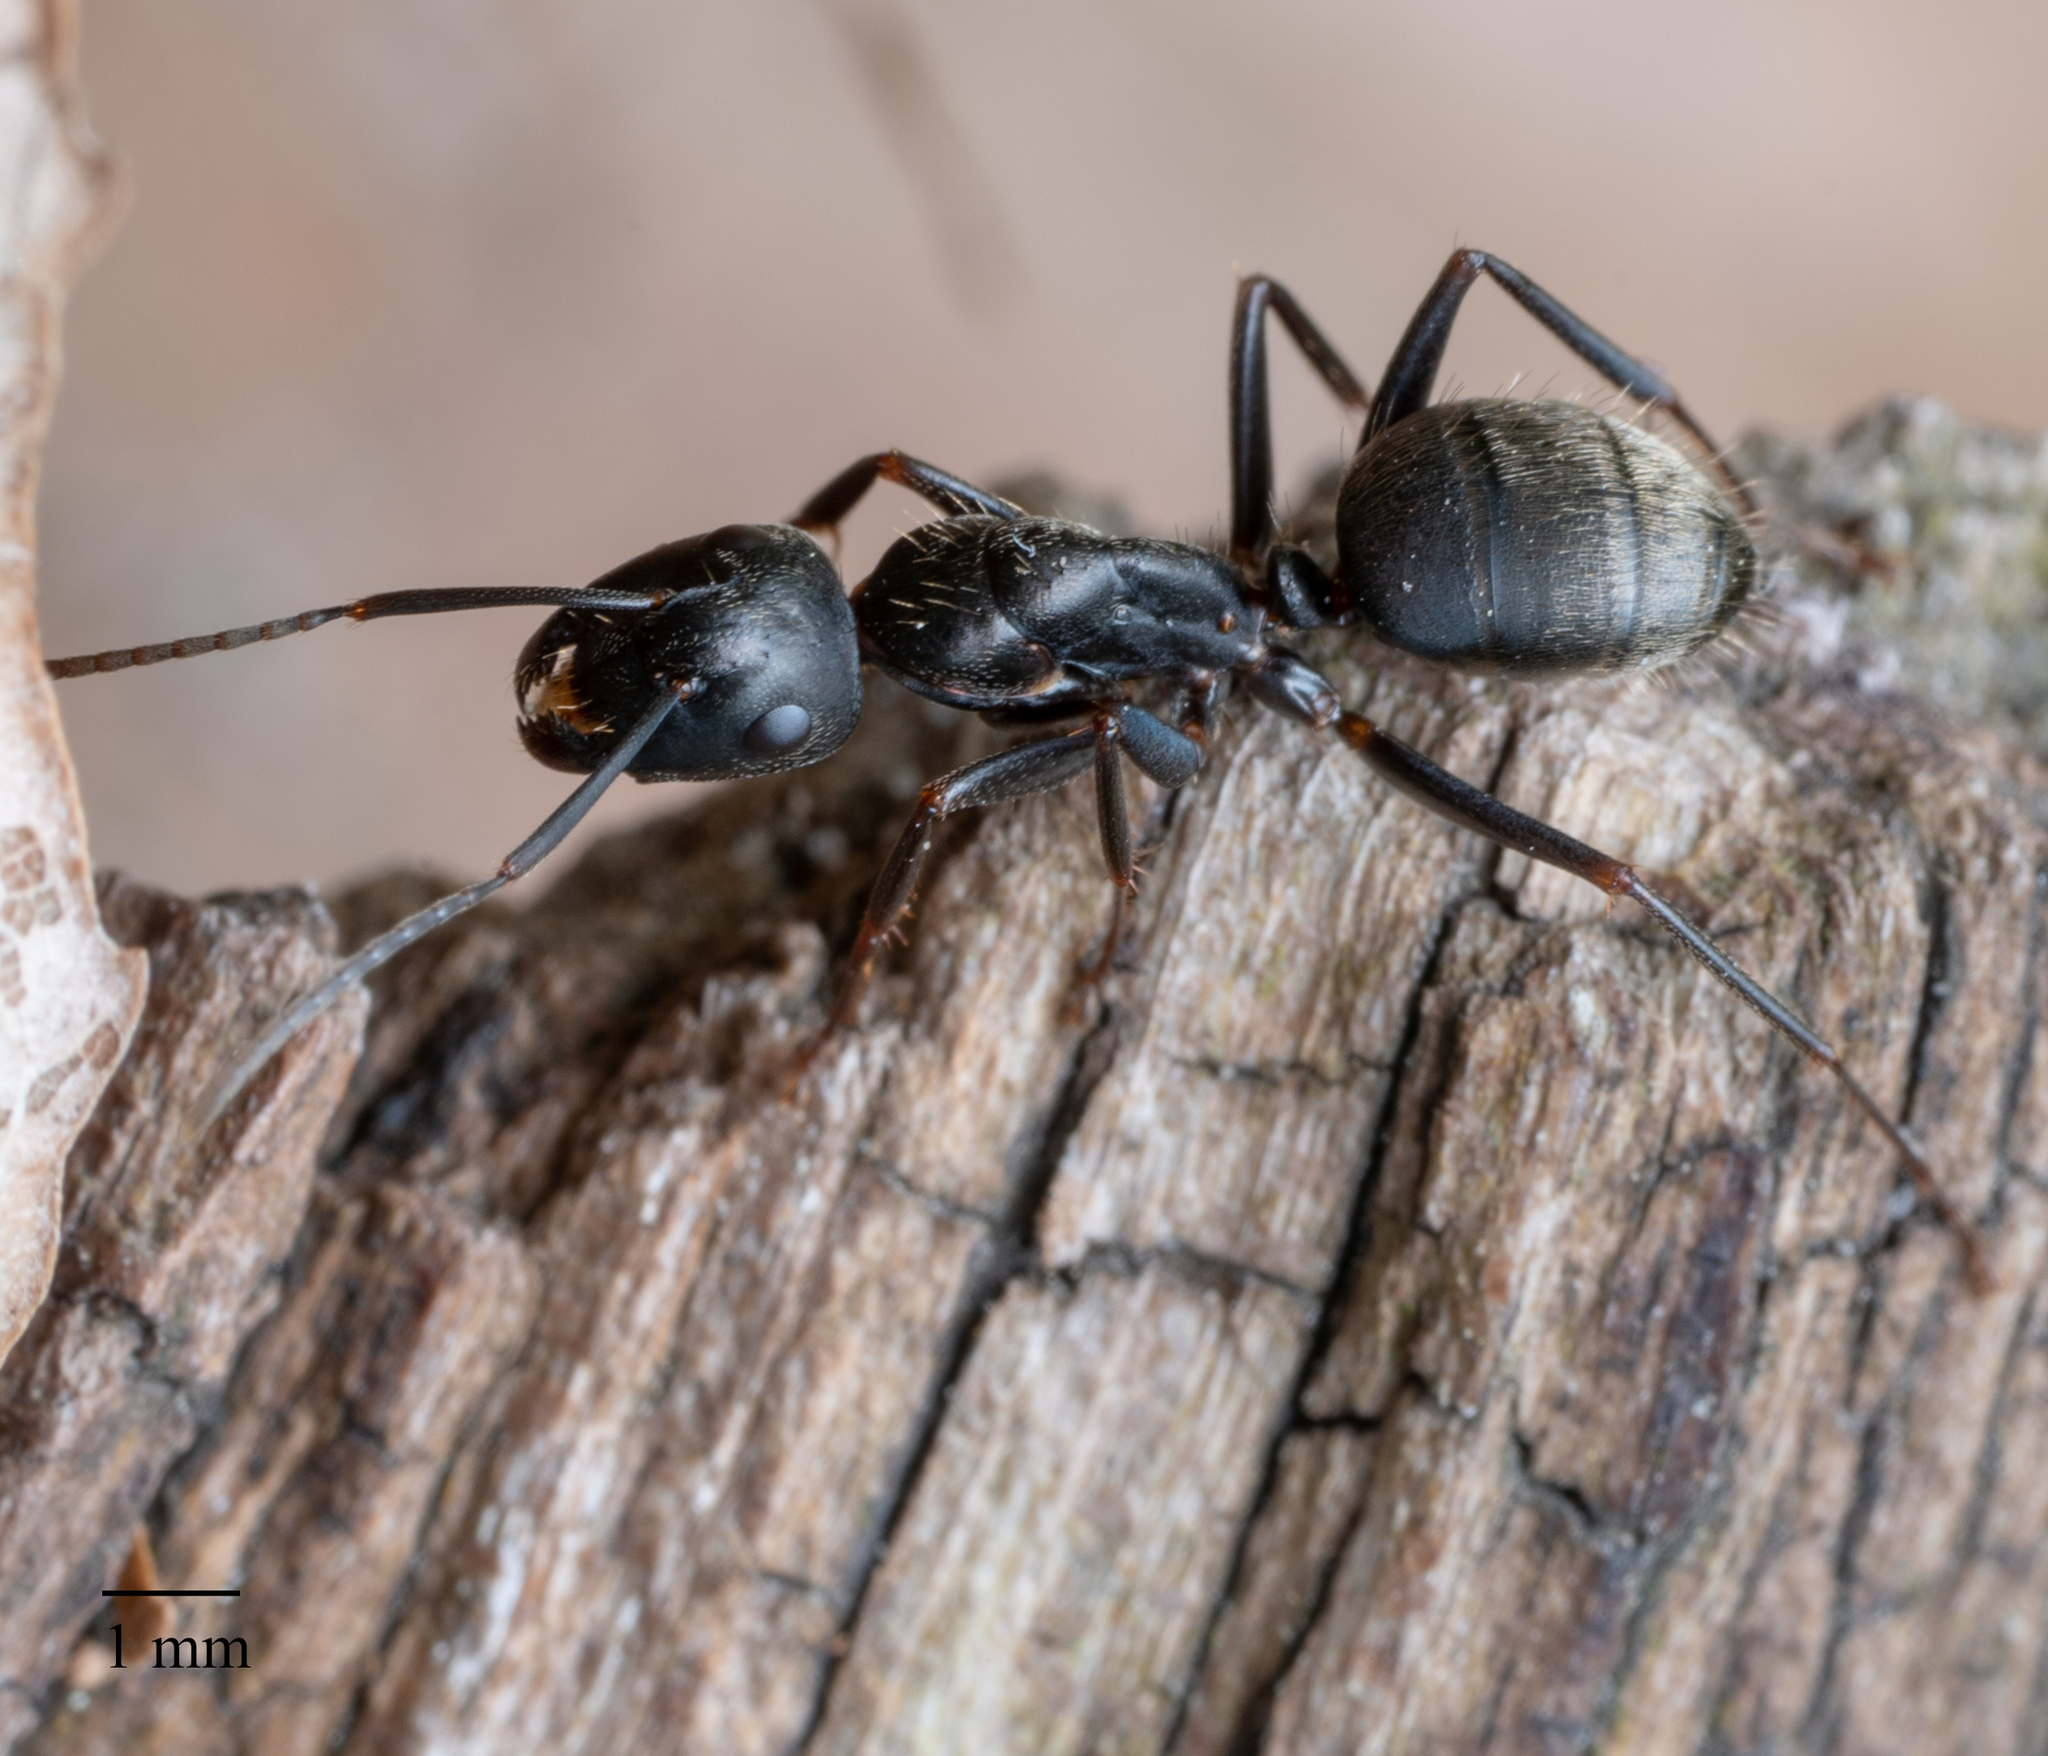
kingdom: Animalia
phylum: Arthropoda
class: Insecta
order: Hymenoptera
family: Formicidae
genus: Camponotus
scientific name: Camponotus pennsylvanicus
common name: Black carpenter ant
